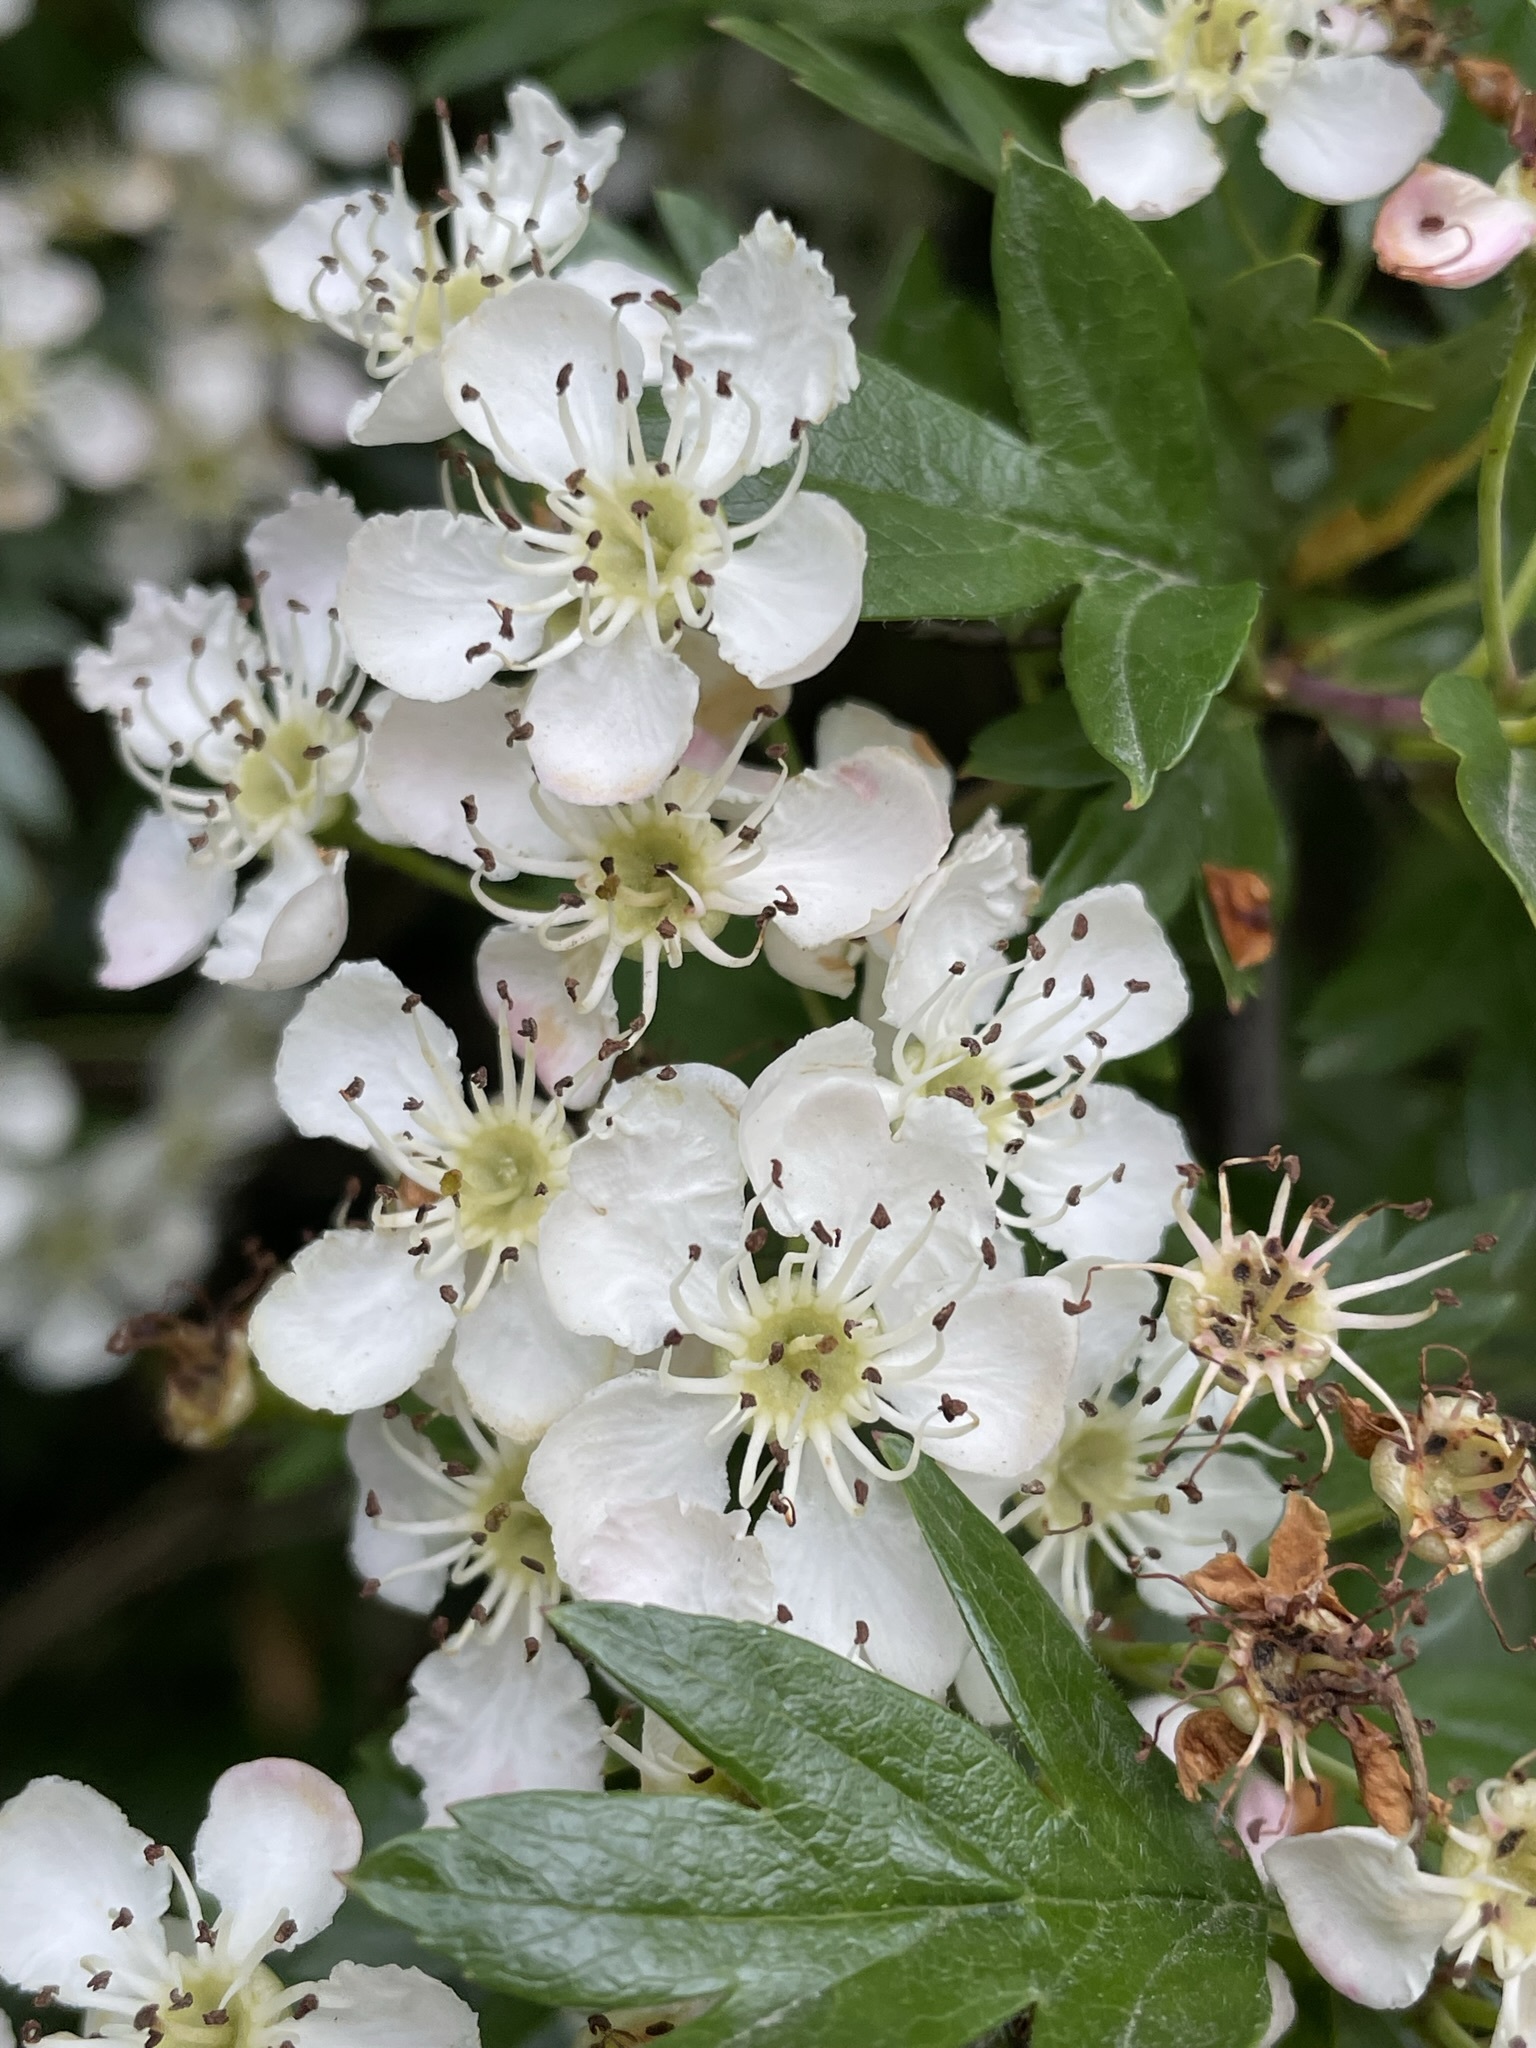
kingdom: Plantae
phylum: Tracheophyta
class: Magnoliopsida
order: Rosales
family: Rosaceae
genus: Crataegus
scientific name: Crataegus monogyna
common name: Hawthorn
